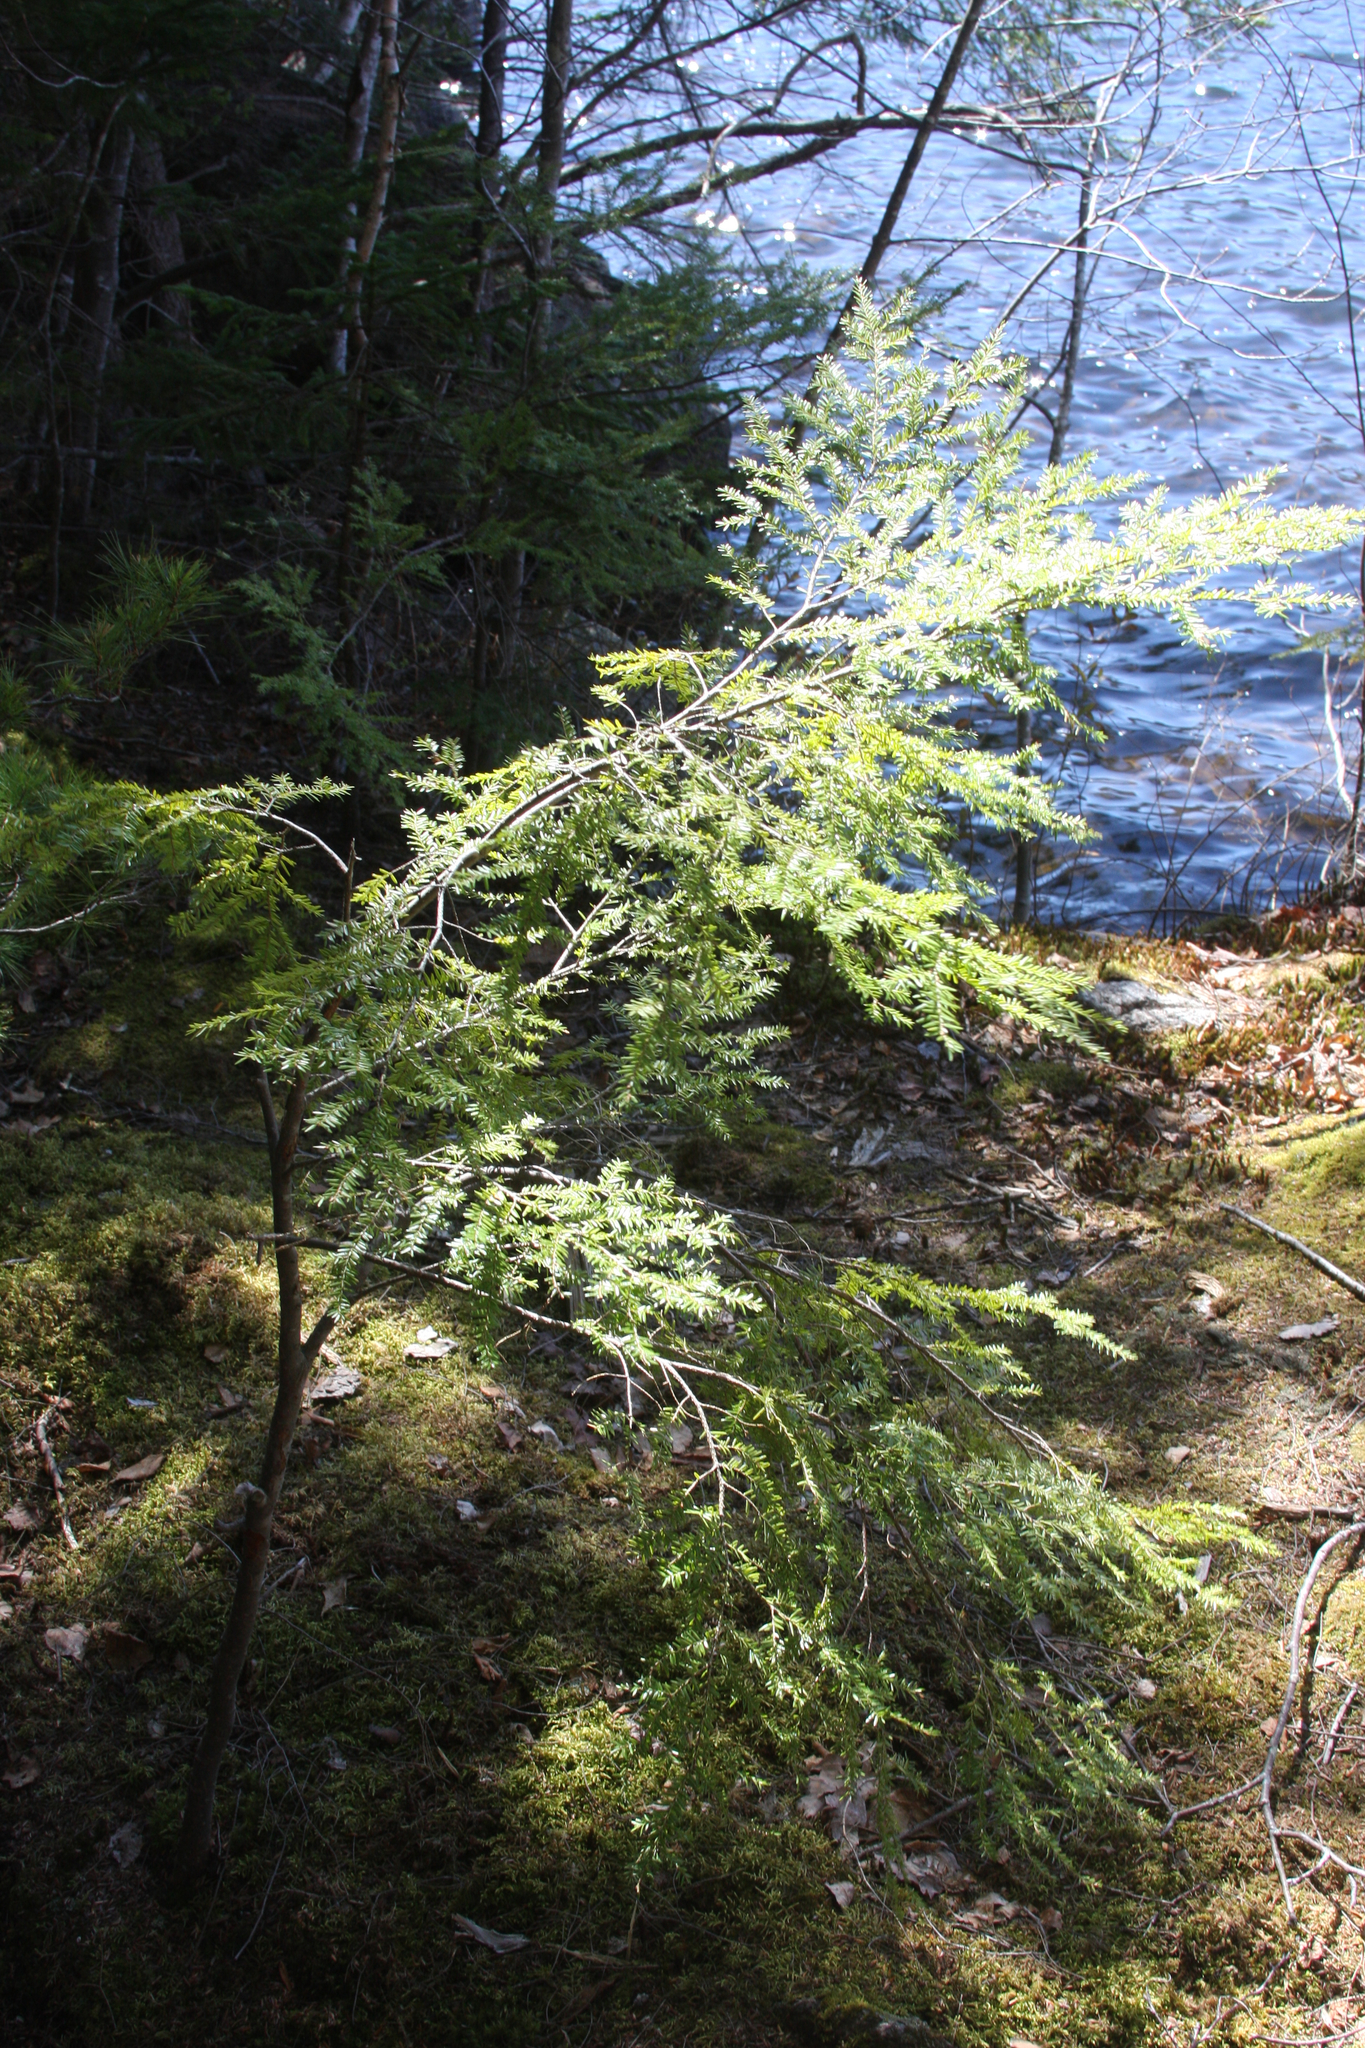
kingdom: Plantae
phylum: Tracheophyta
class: Pinopsida
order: Pinales
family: Pinaceae
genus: Tsuga
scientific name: Tsuga canadensis
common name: Eastern hemlock
